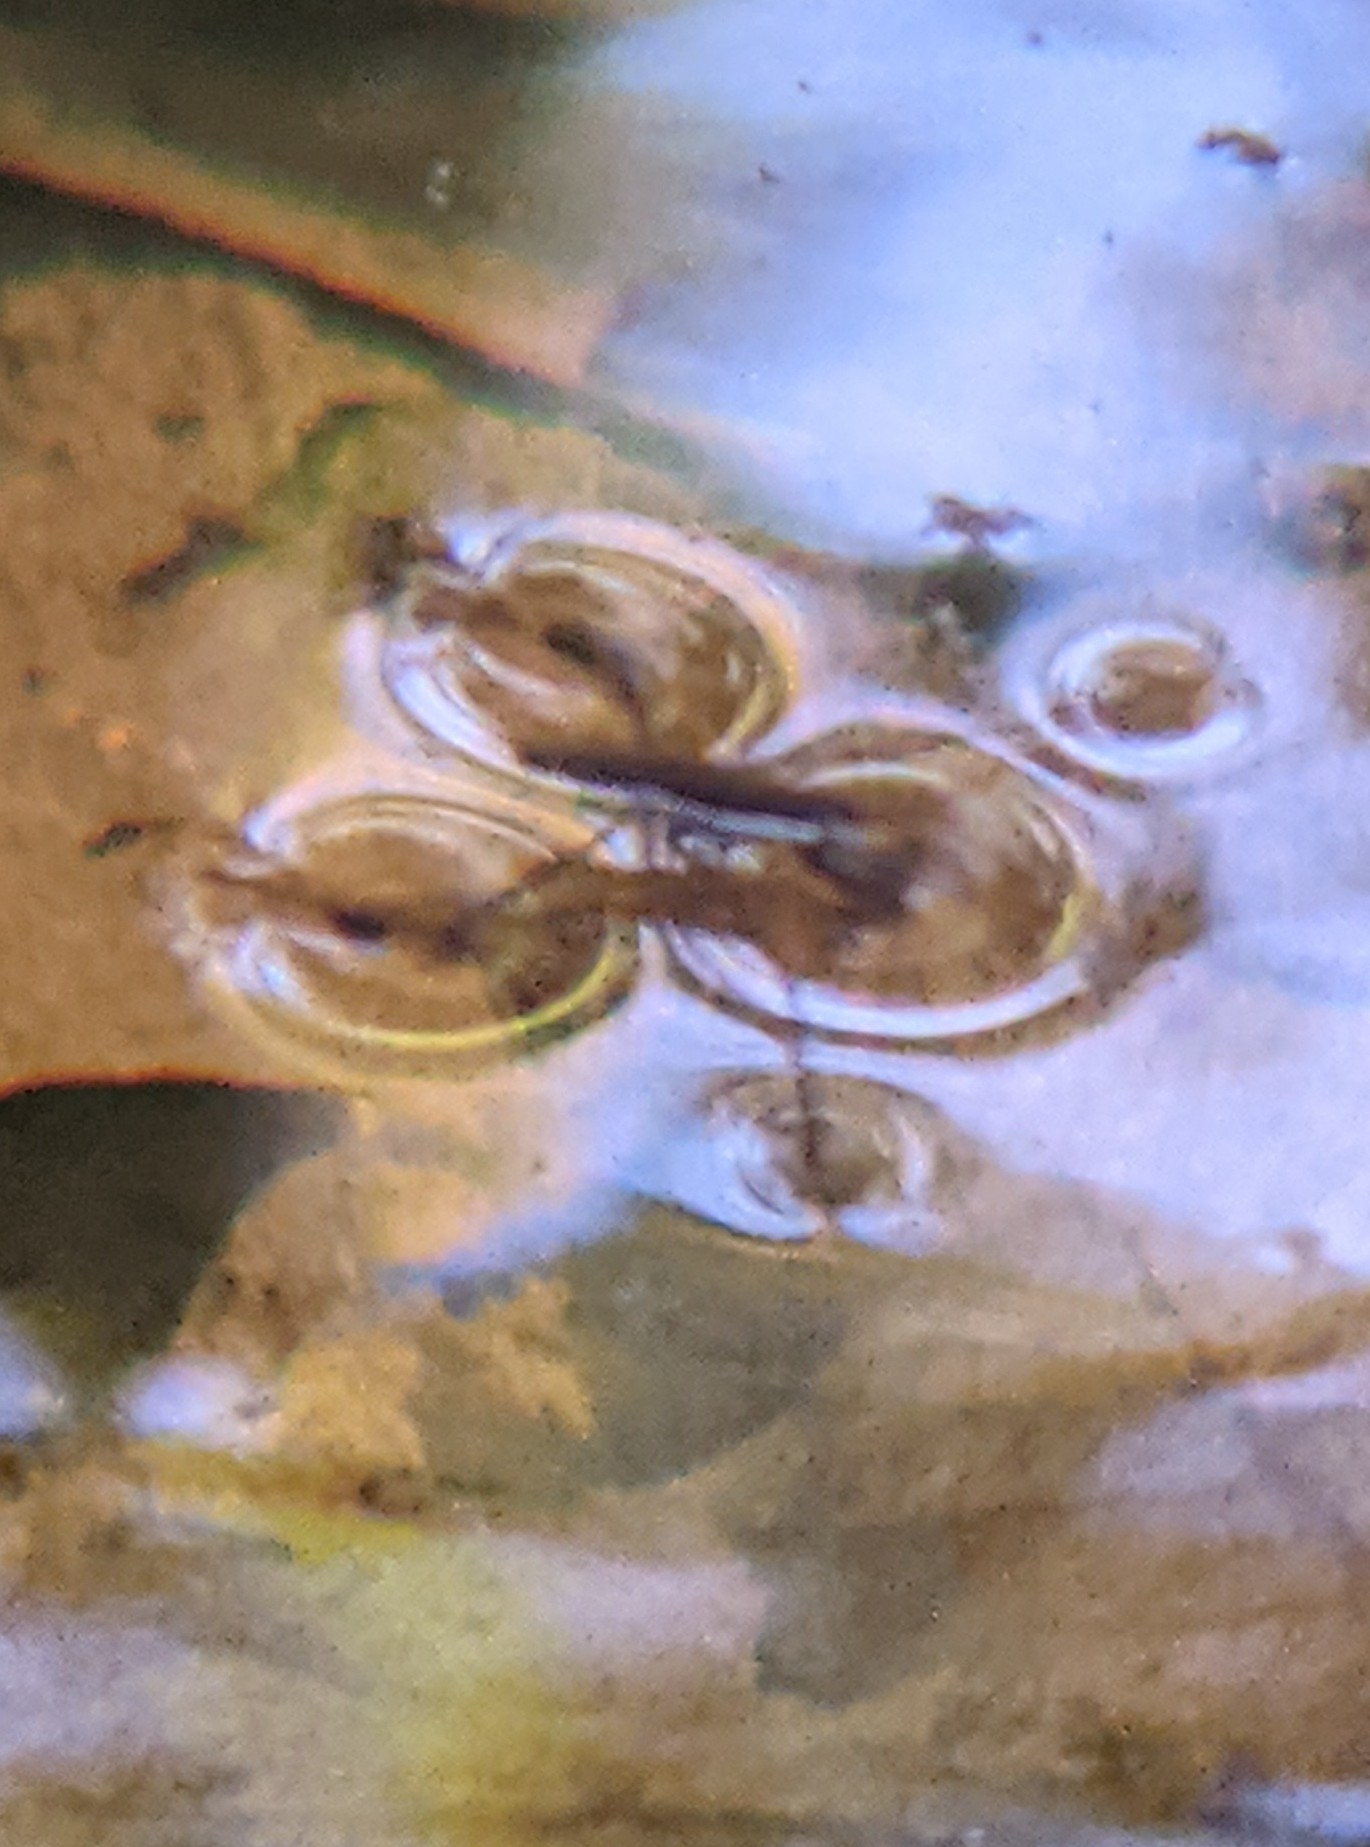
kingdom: Animalia
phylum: Arthropoda
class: Insecta
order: Hemiptera
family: Gerridae
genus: Aquarius
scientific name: Aquarius remigis
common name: Common water strider
